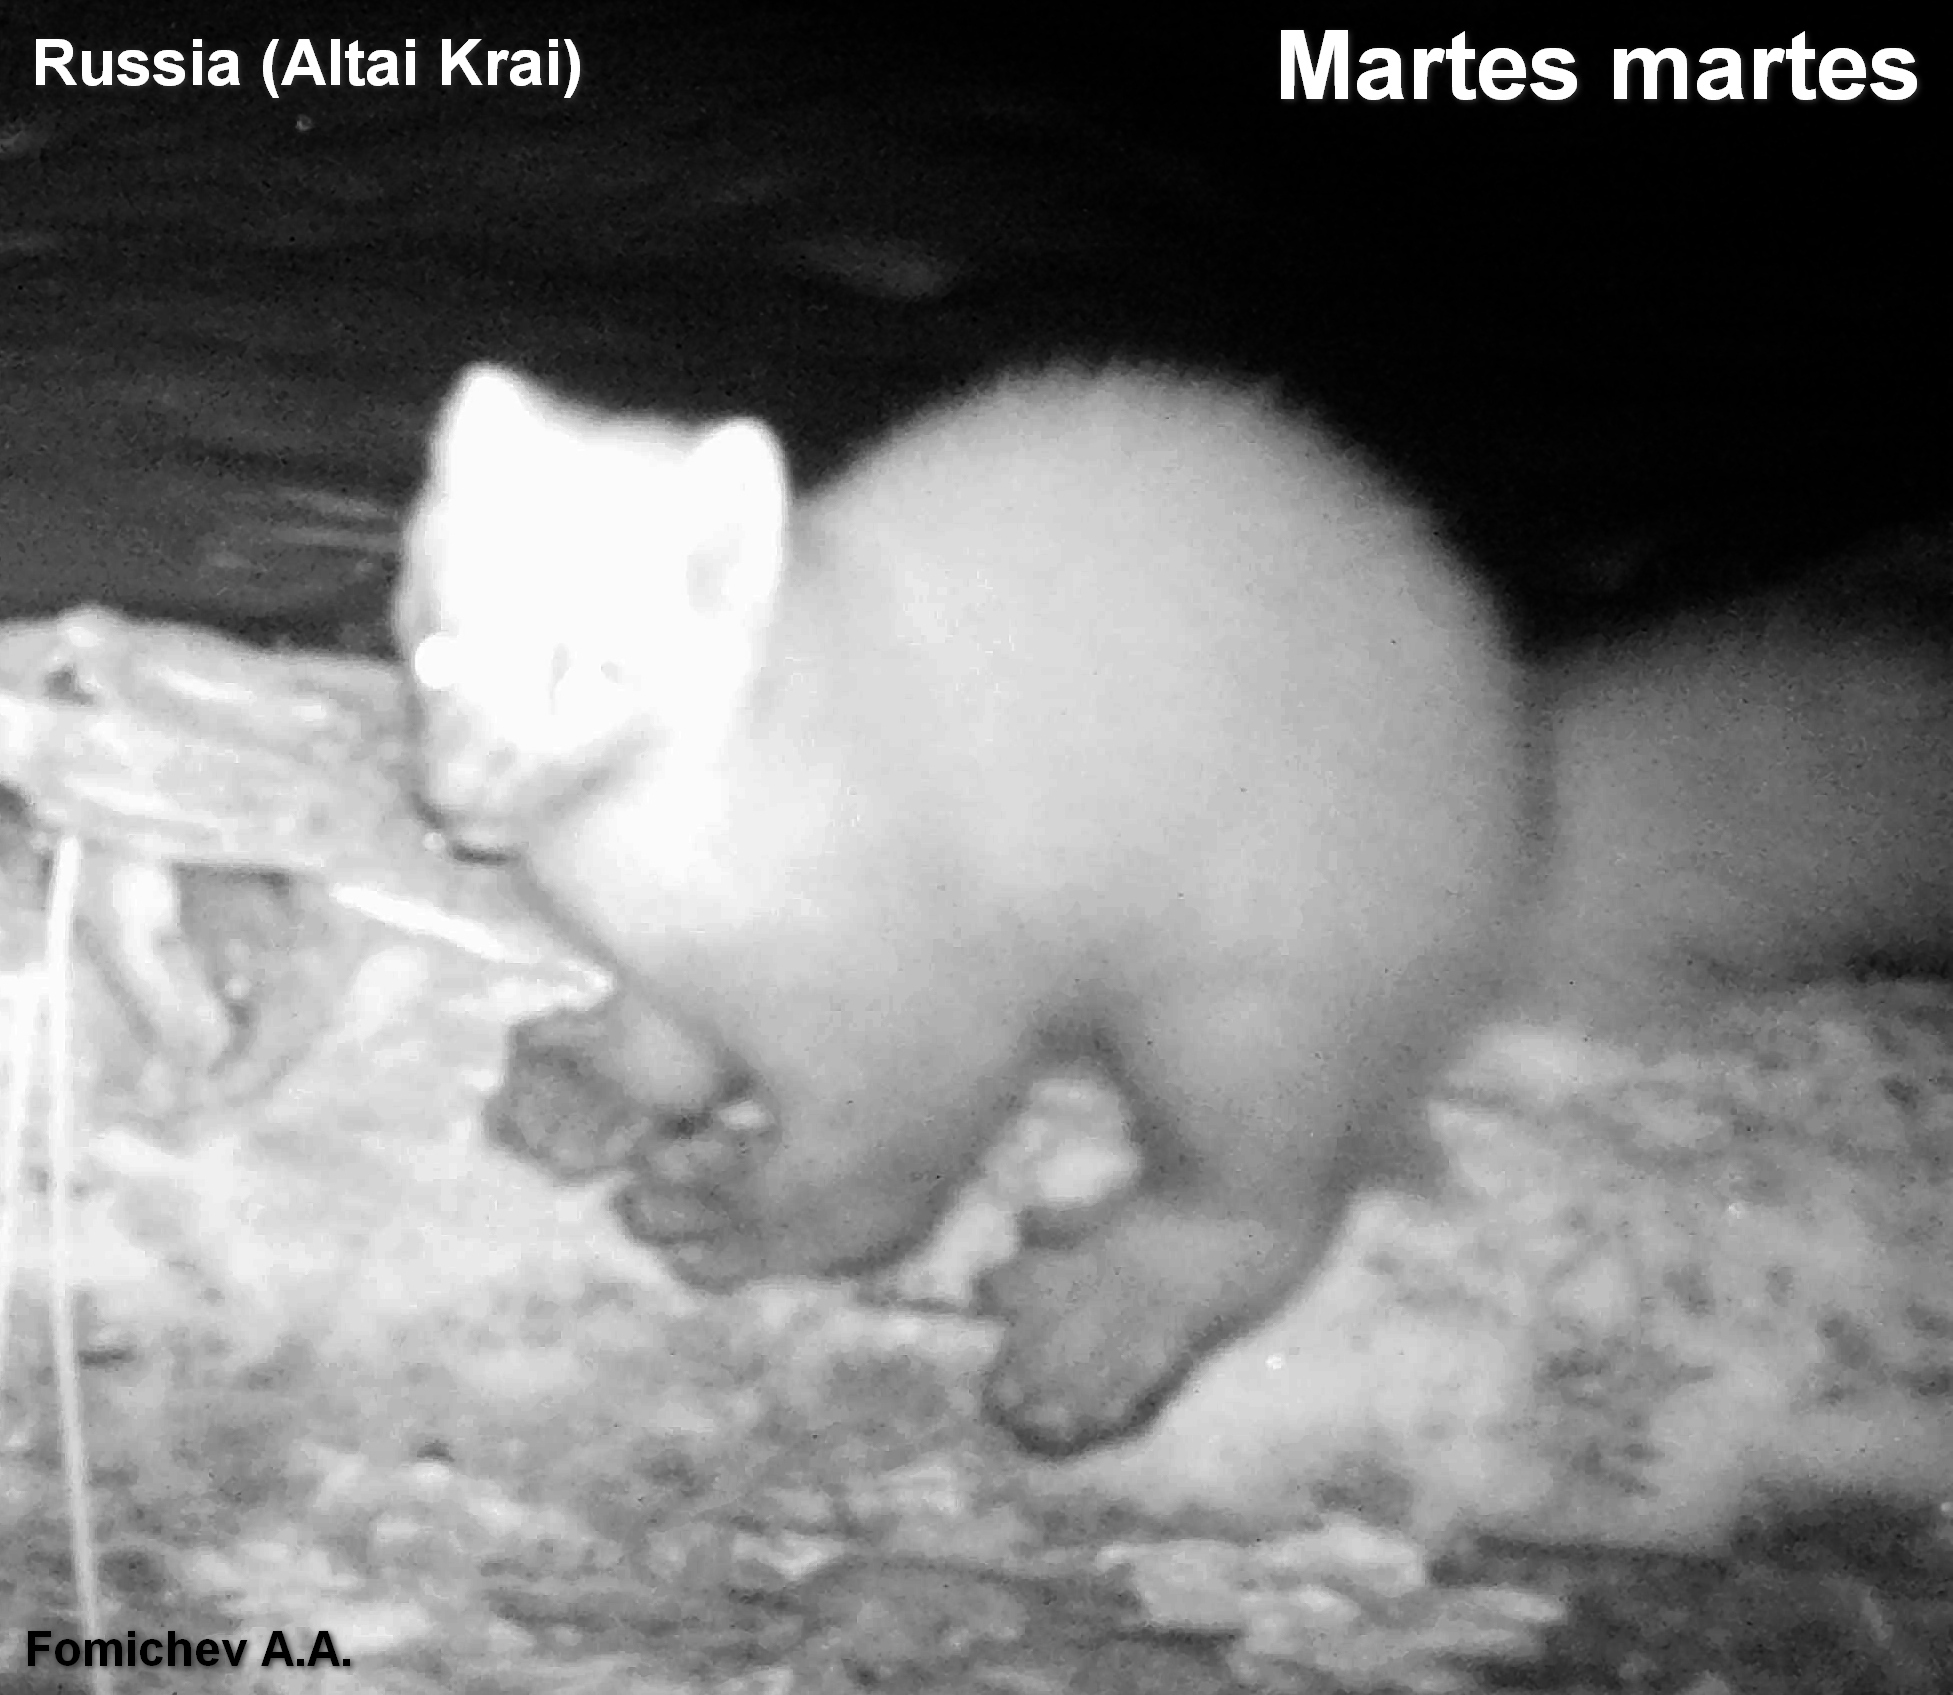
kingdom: Animalia
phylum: Chordata
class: Mammalia
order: Carnivora
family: Mustelidae
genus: Martes
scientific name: Martes martes
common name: European pine marten
